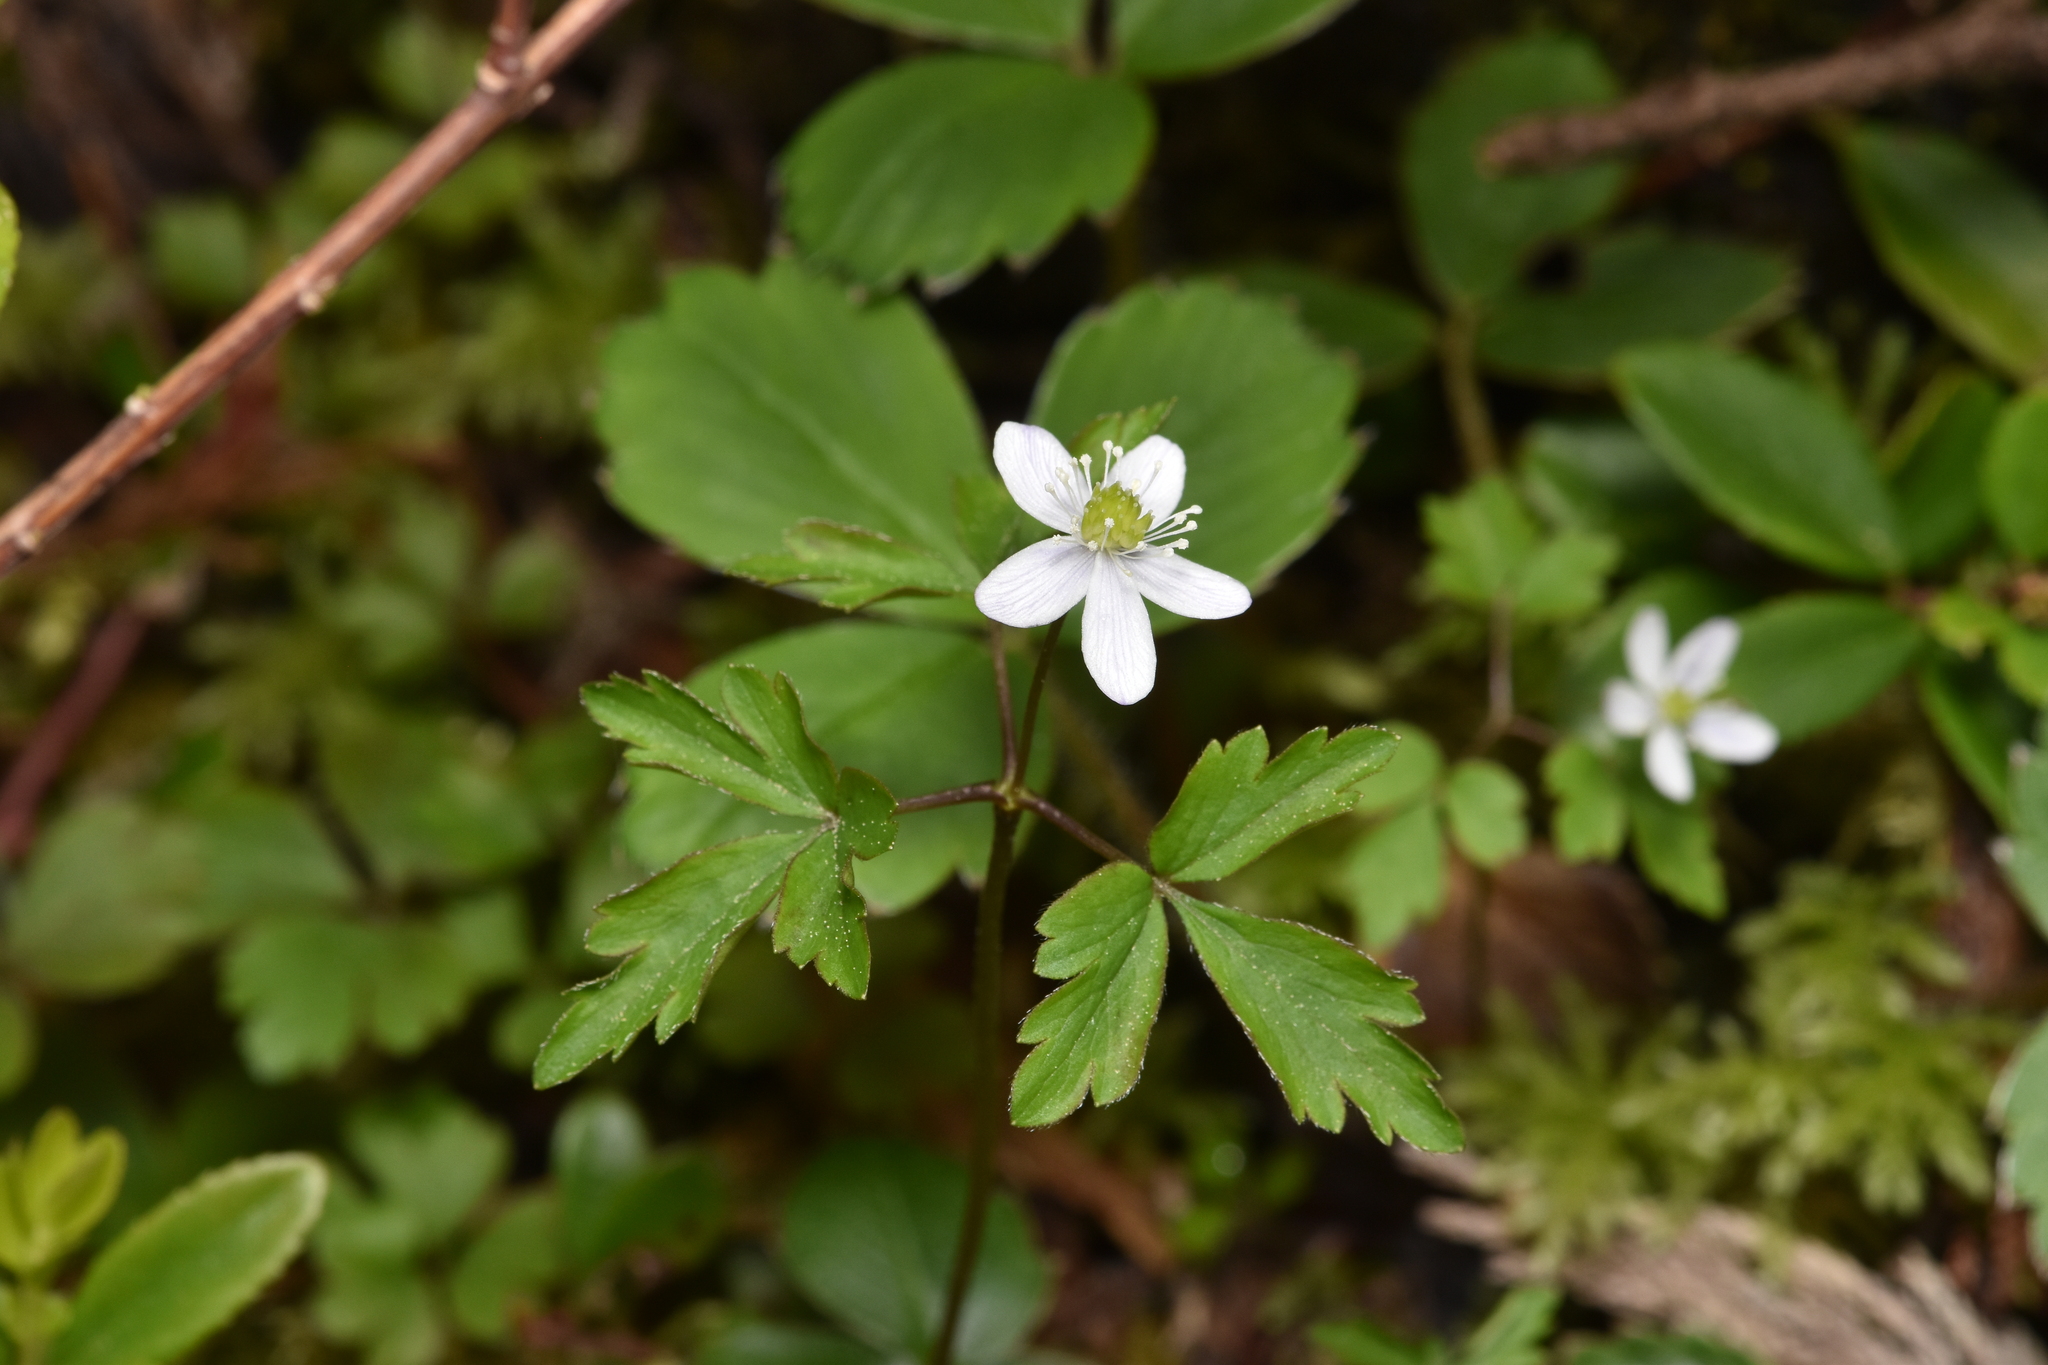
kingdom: Plantae
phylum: Tracheophyta
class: Magnoliopsida
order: Ranunculales
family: Ranunculaceae
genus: Anemone
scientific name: Anemone
